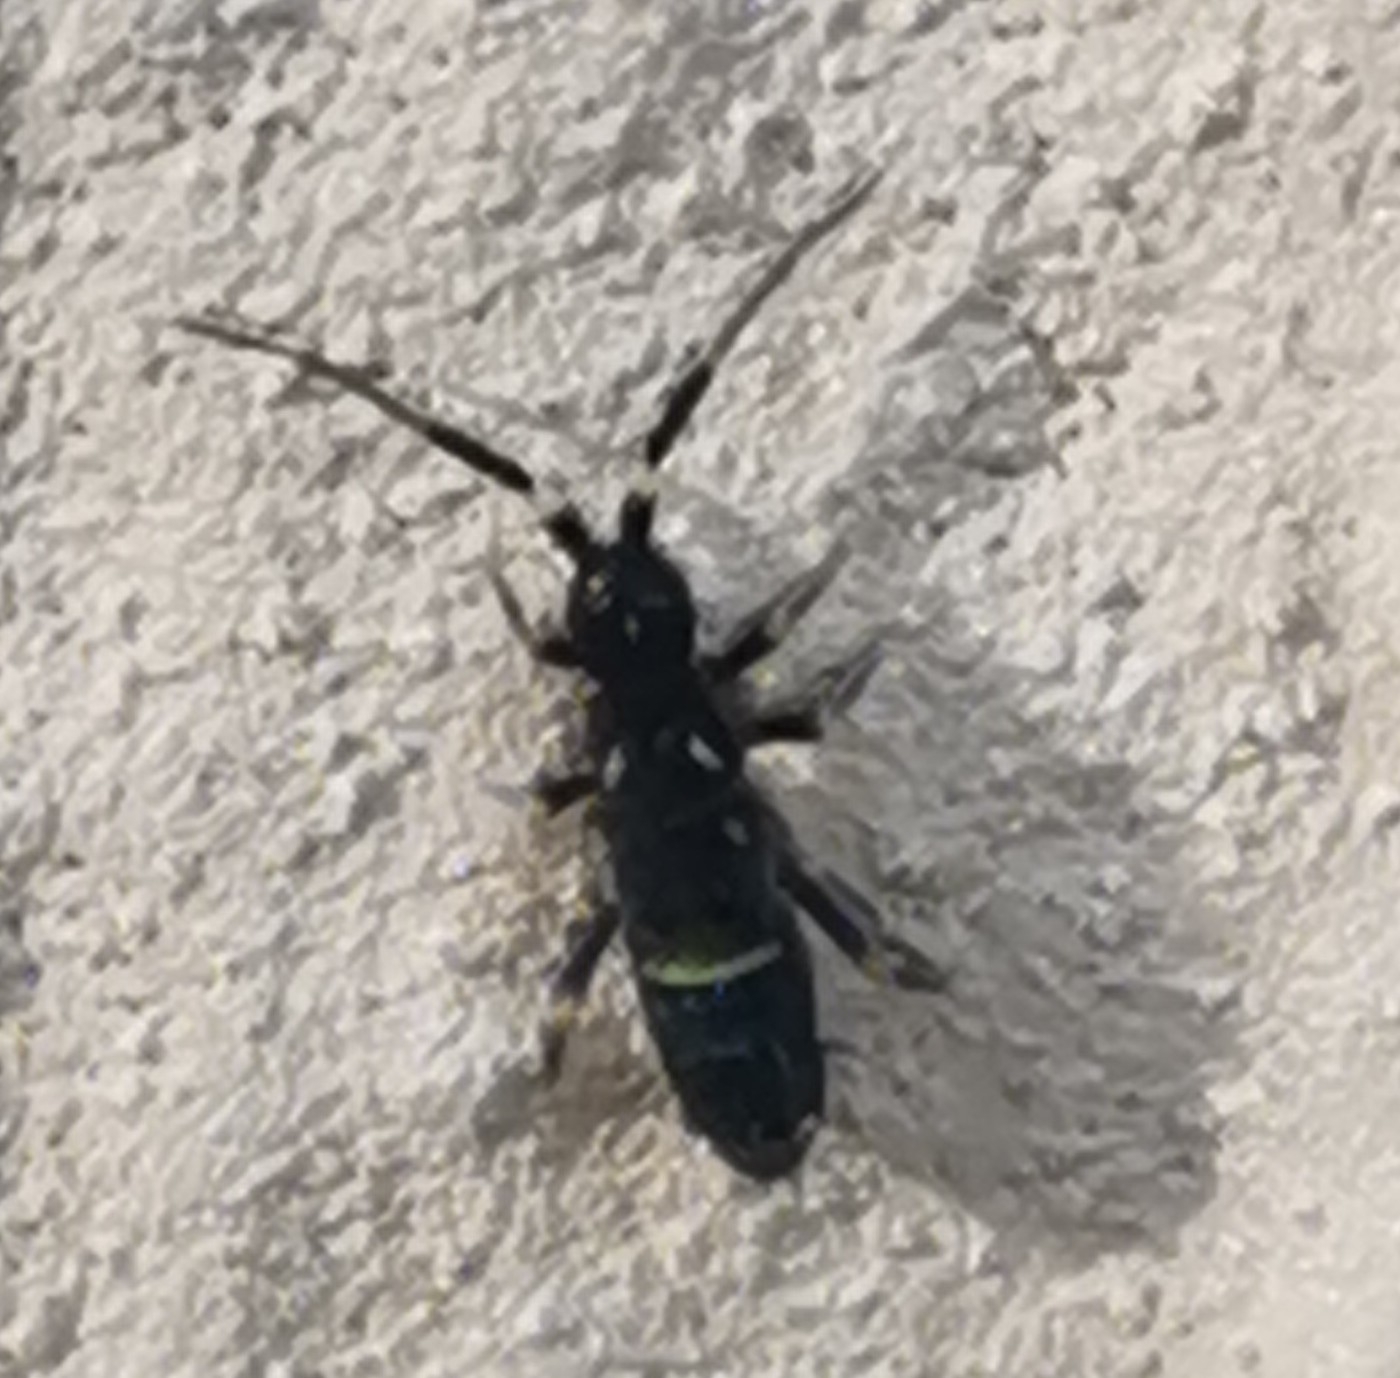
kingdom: Animalia
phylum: Arthropoda
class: Collembola
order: Entomobryomorpha
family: Orchesellidae
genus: Orchesella
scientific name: Orchesella cincta
